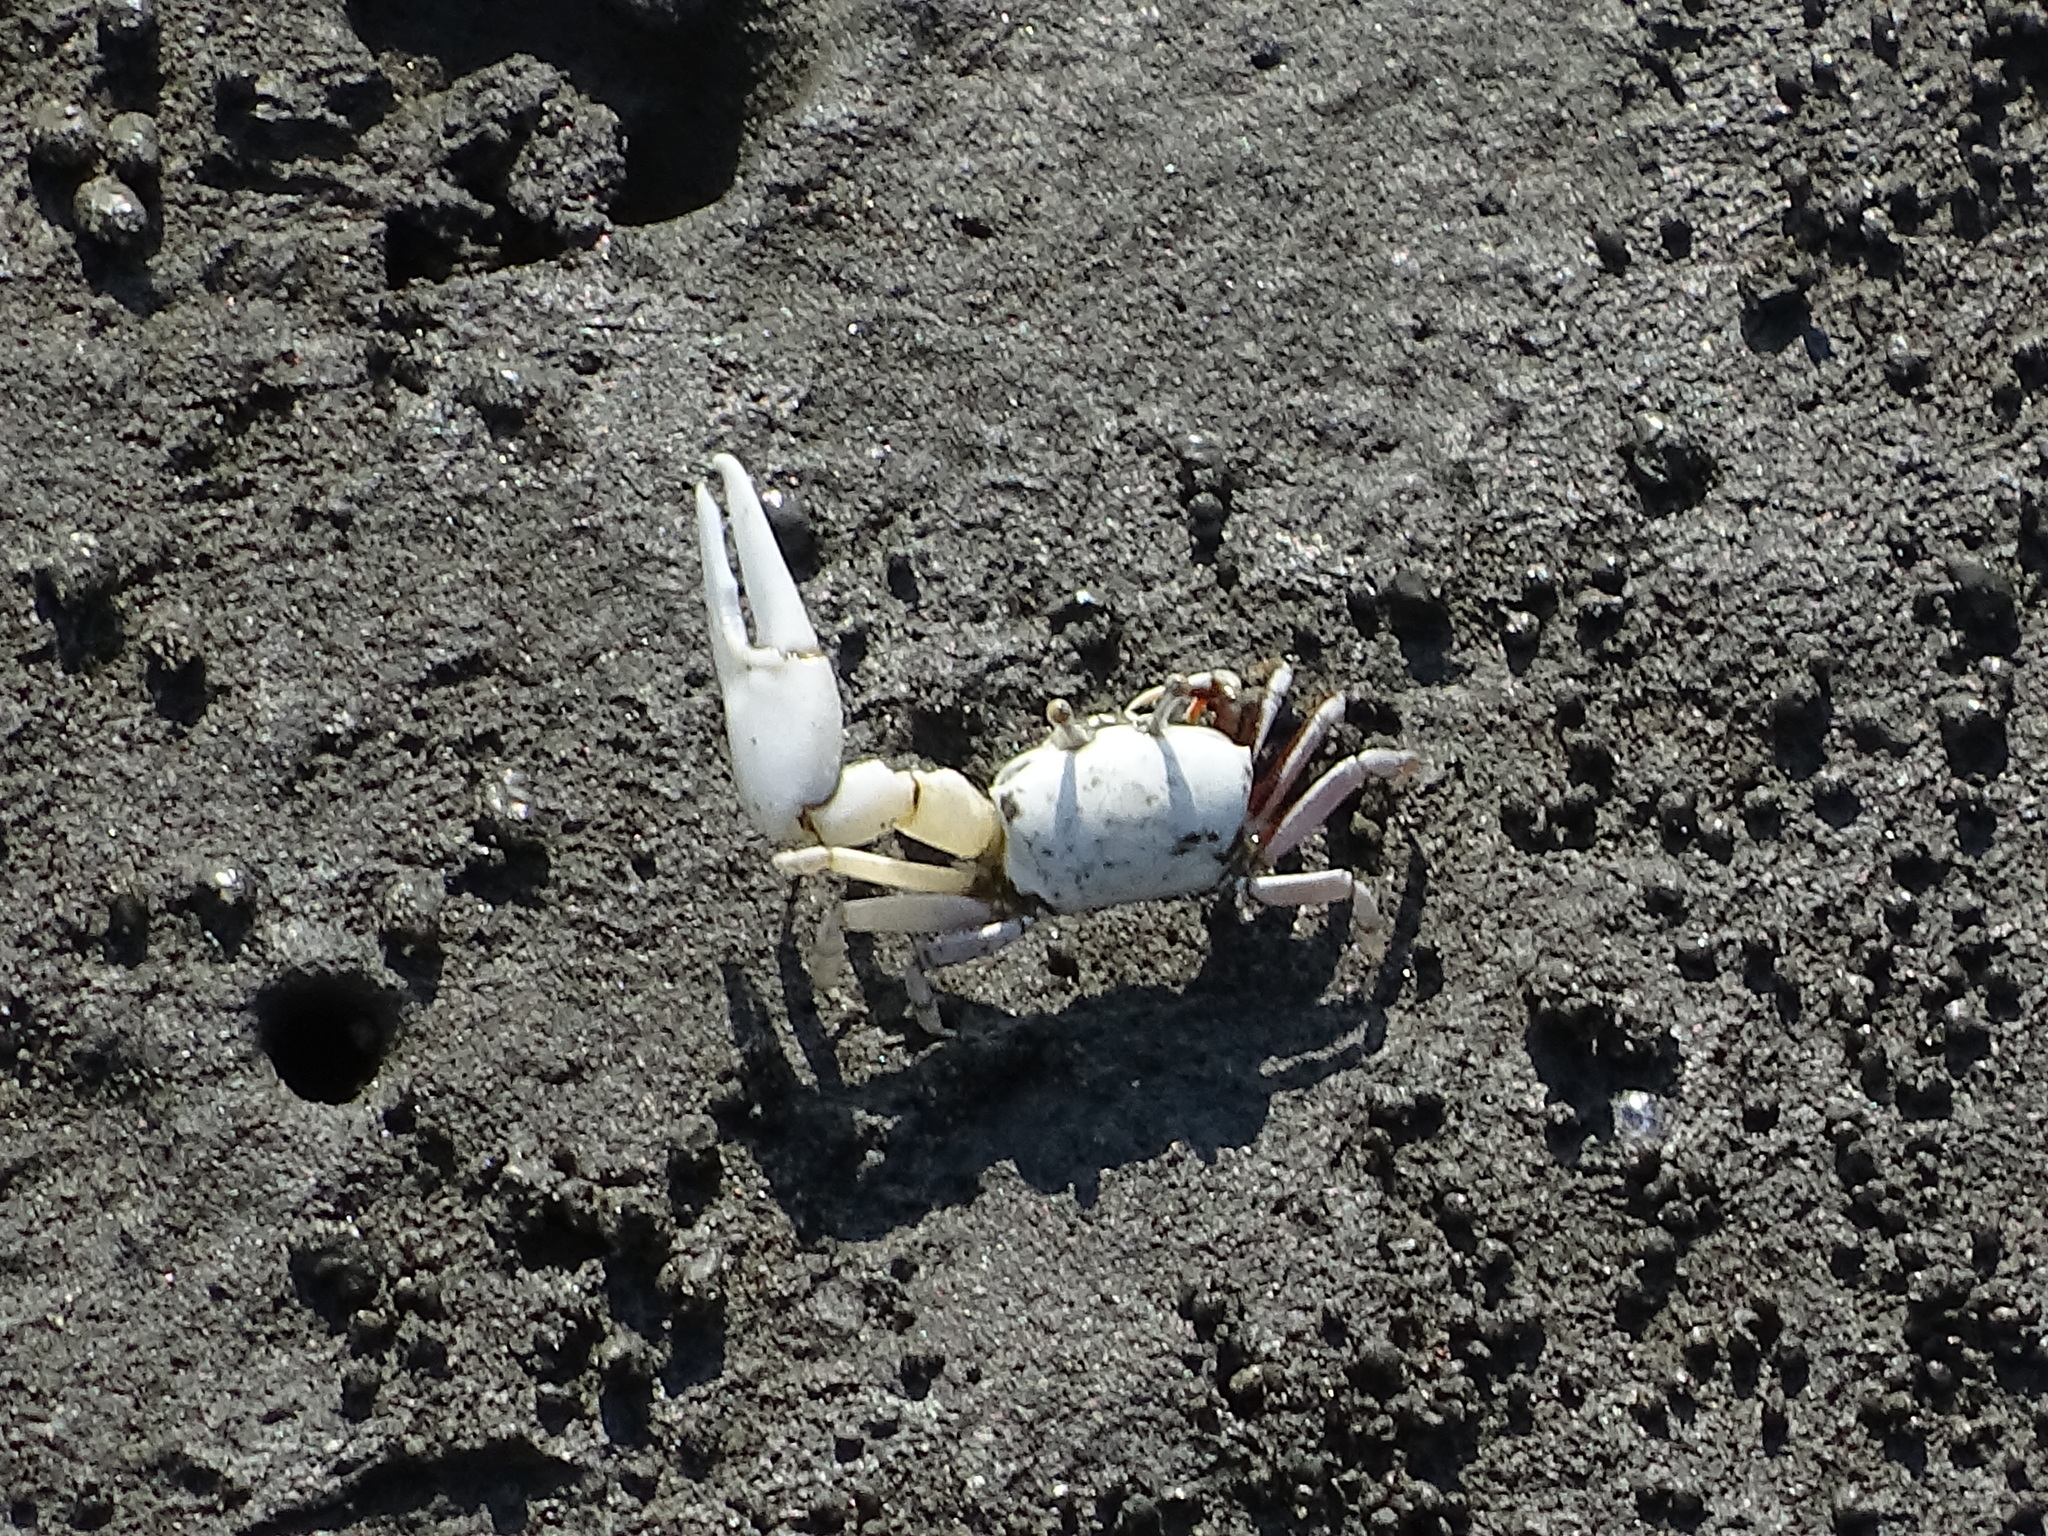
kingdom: Animalia
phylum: Arthropoda
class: Malacostraca
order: Decapoda
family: Ocypodidae
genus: Austruca
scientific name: Austruca lactea
